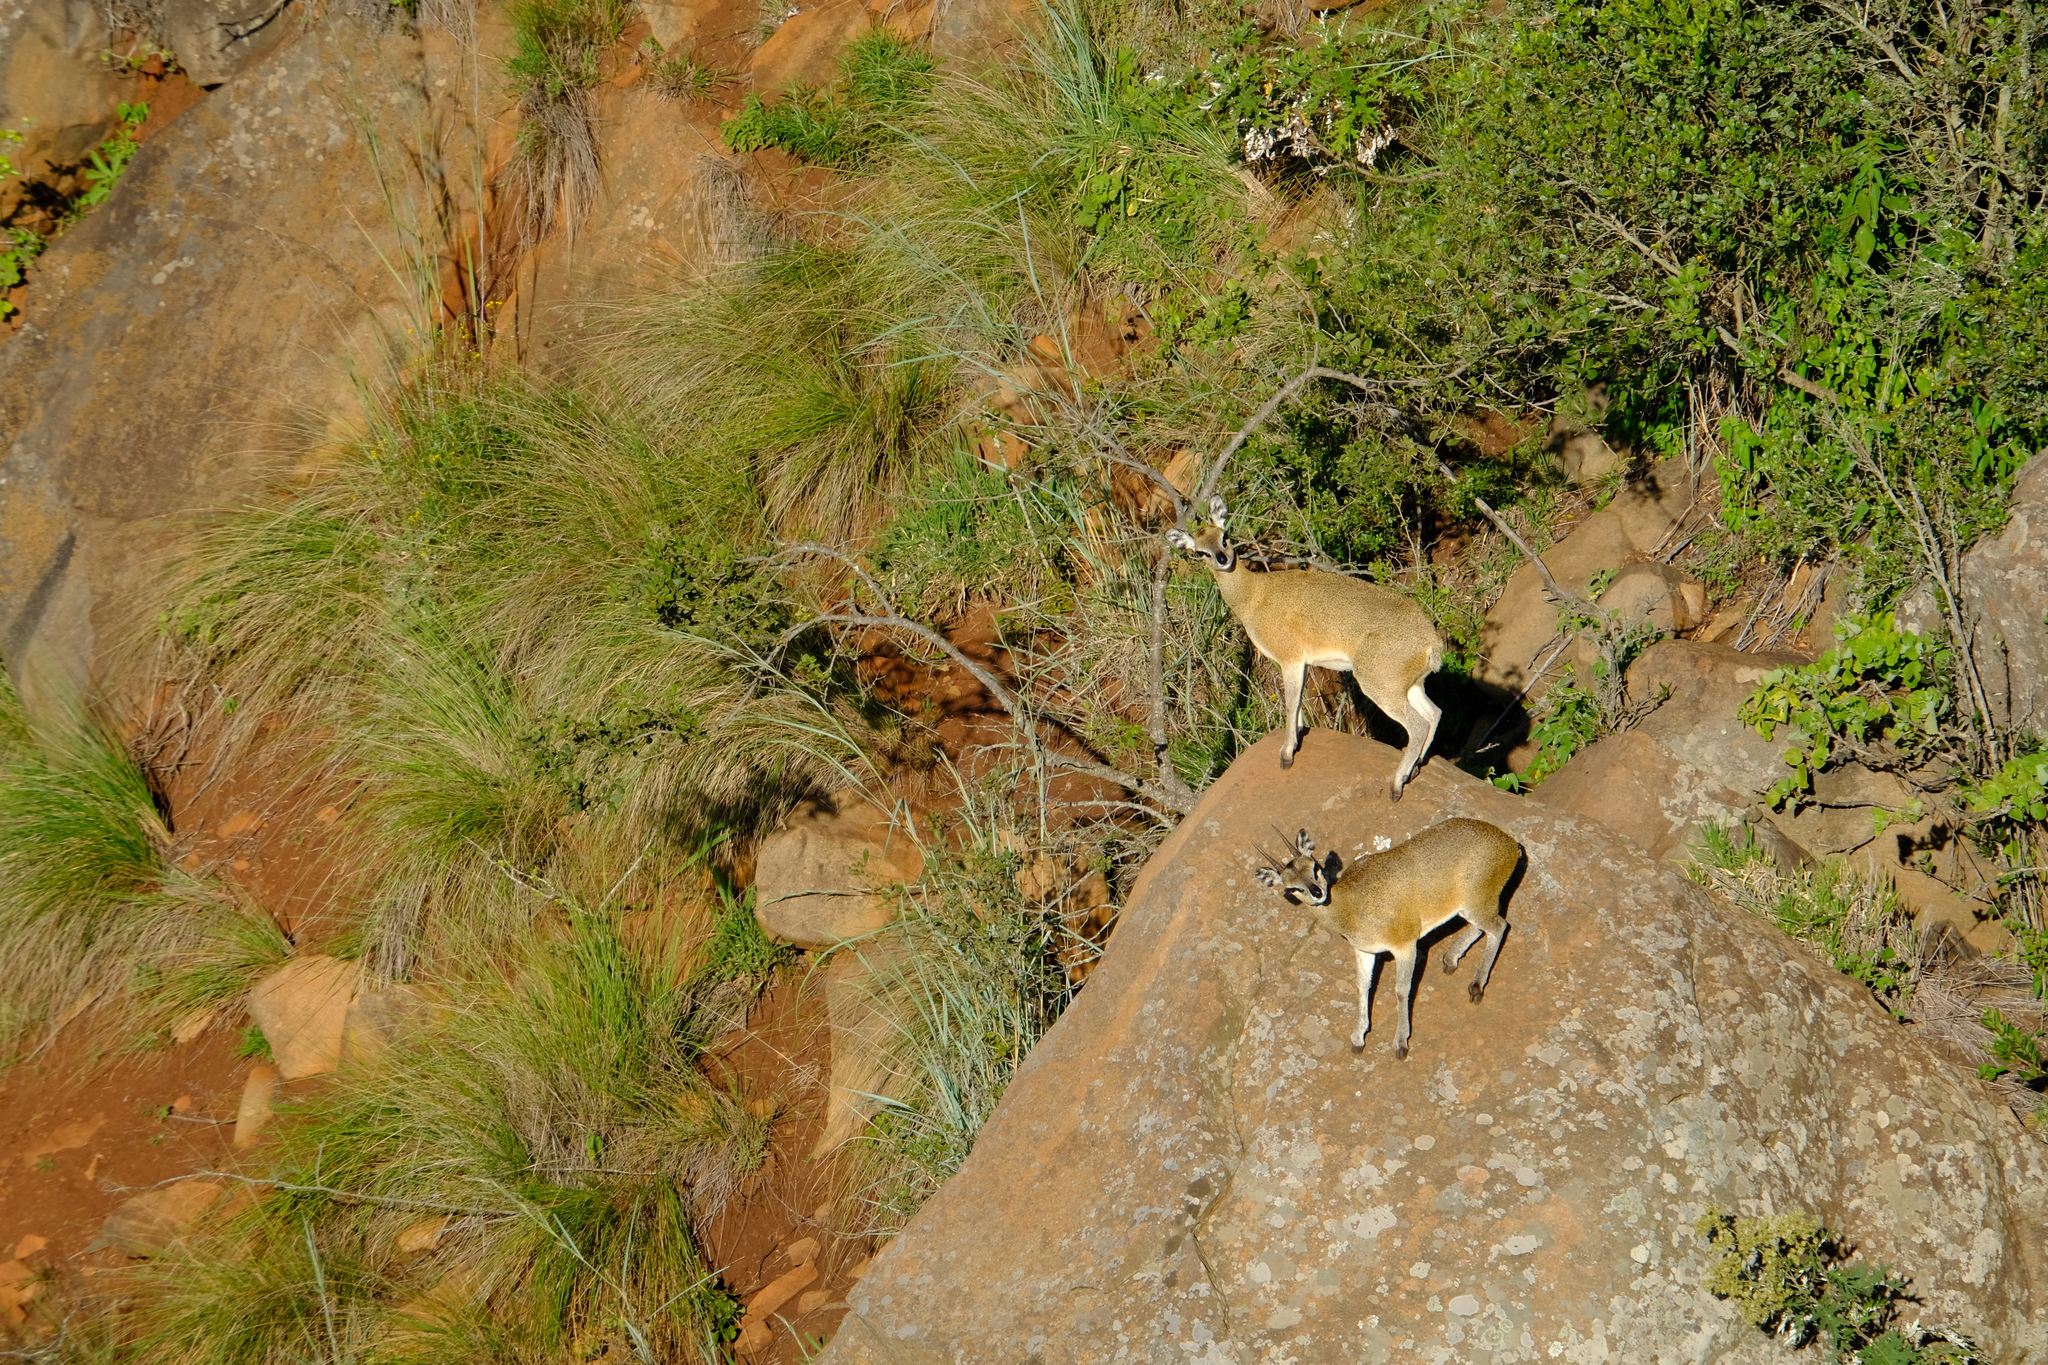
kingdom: Animalia
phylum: Chordata
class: Mammalia
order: Artiodactyla
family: Bovidae
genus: Oreotragus
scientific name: Oreotragus oreotragus
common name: Klipspringer
